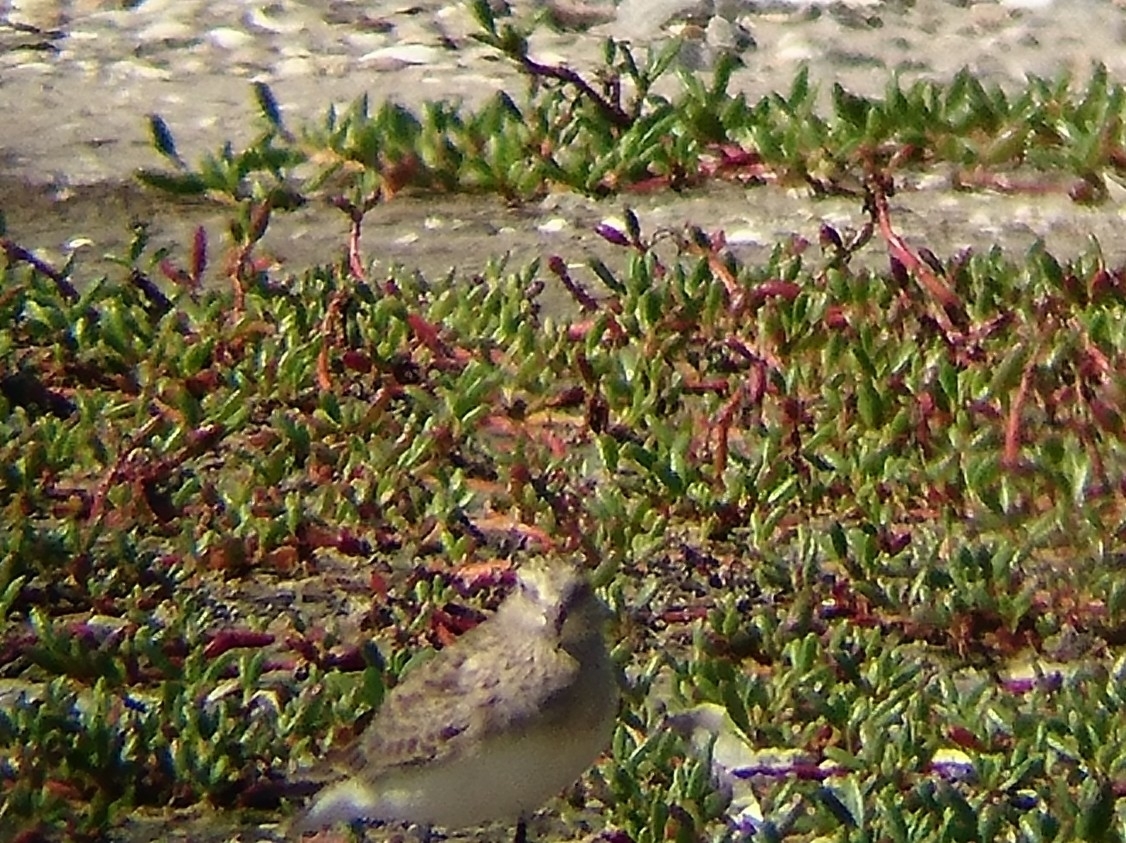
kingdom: Animalia
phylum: Chordata
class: Aves
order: Charadriiformes
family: Scolopacidae
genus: Calidris
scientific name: Calidris bairdii
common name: Baird's sandpiper
